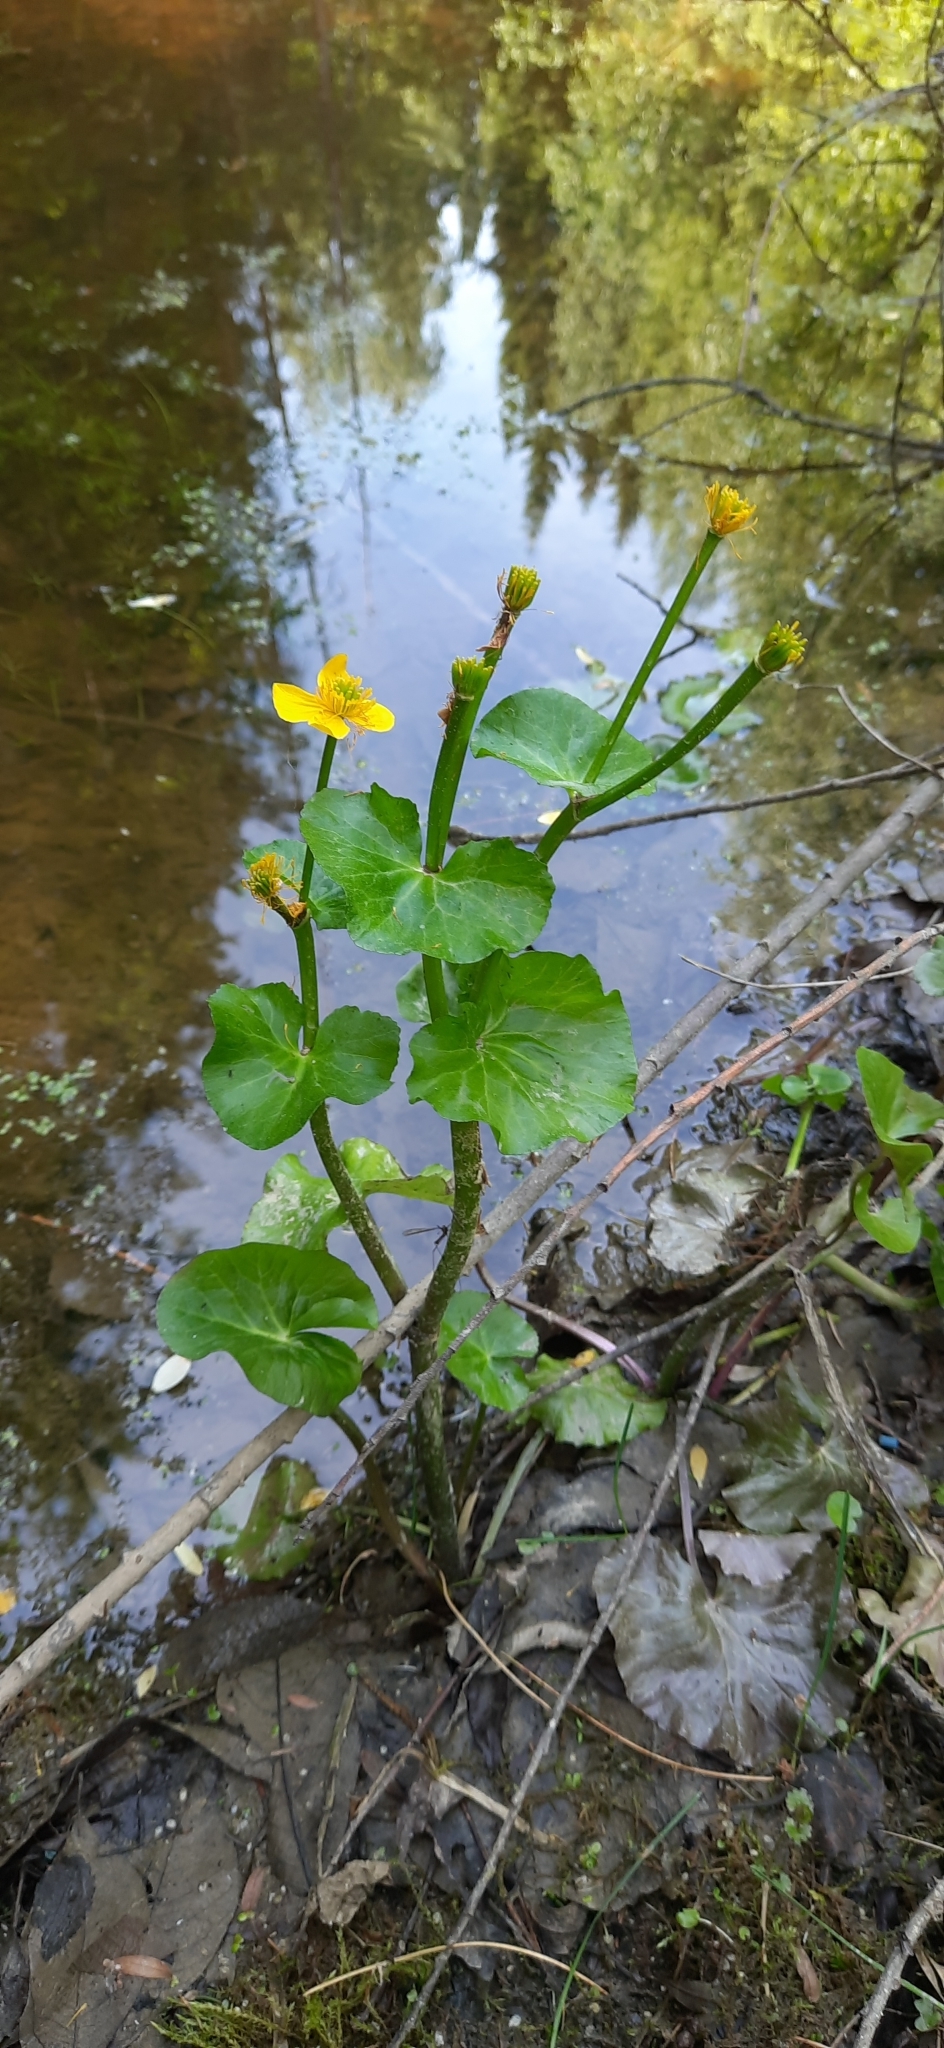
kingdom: Plantae
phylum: Tracheophyta
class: Magnoliopsida
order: Ranunculales
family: Ranunculaceae
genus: Caltha
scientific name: Caltha palustris
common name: Marsh marigold
